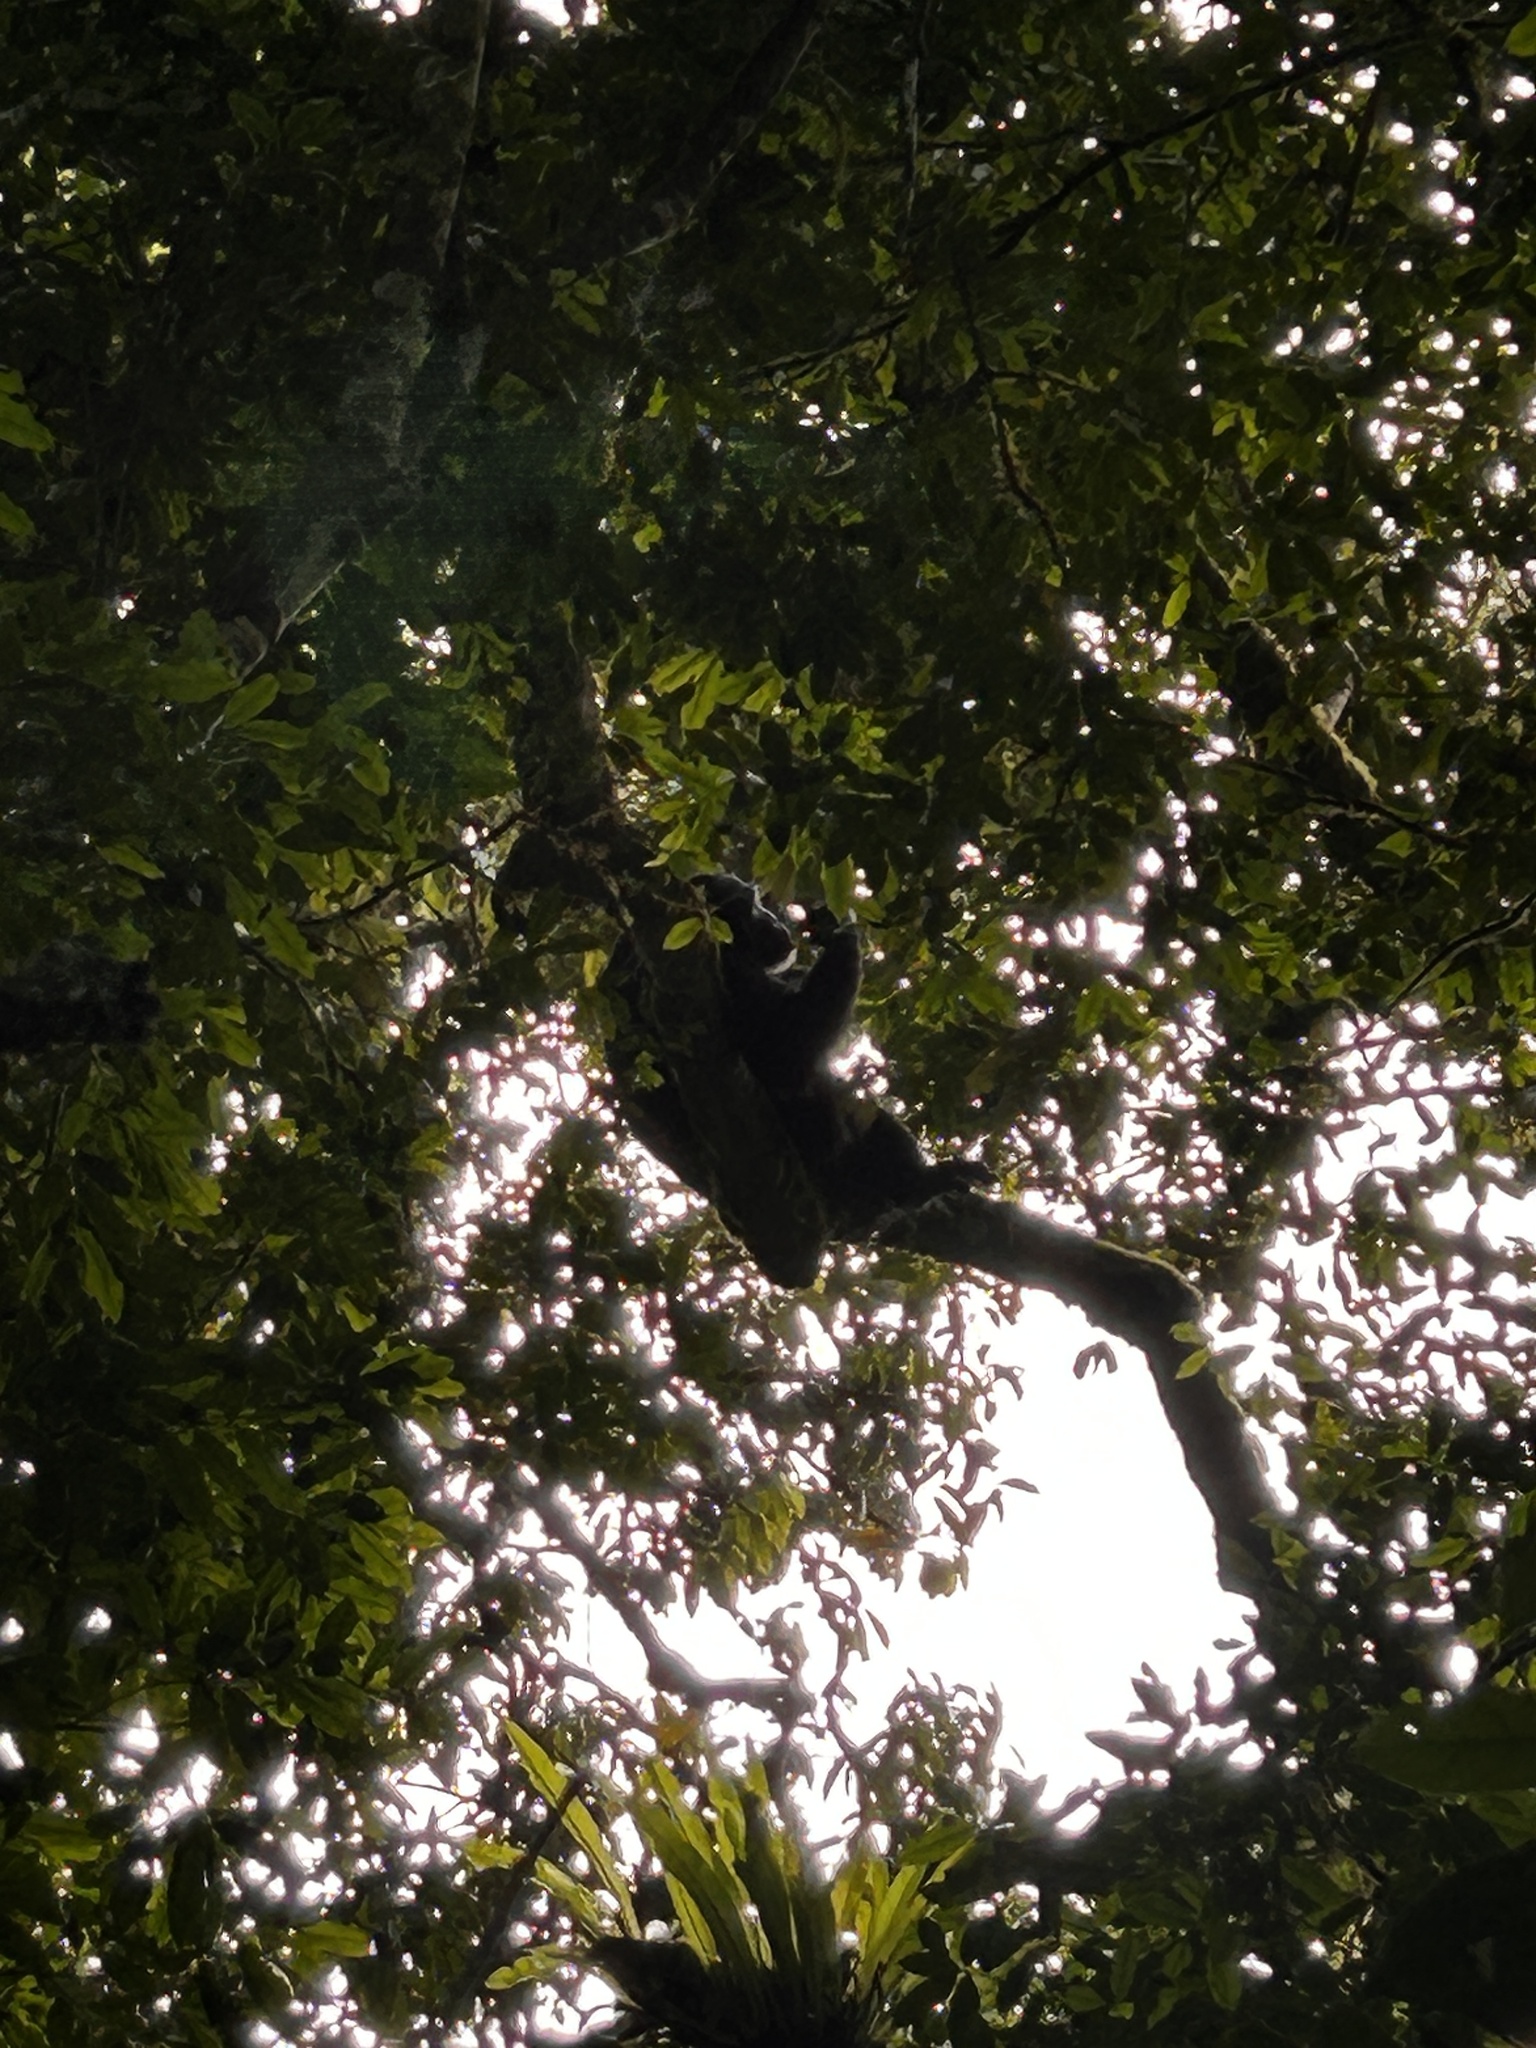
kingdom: Animalia
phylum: Chordata
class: Mammalia
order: Primates
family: Hominidae
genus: Pan
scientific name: Pan troglodytes
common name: Chimpanzee
